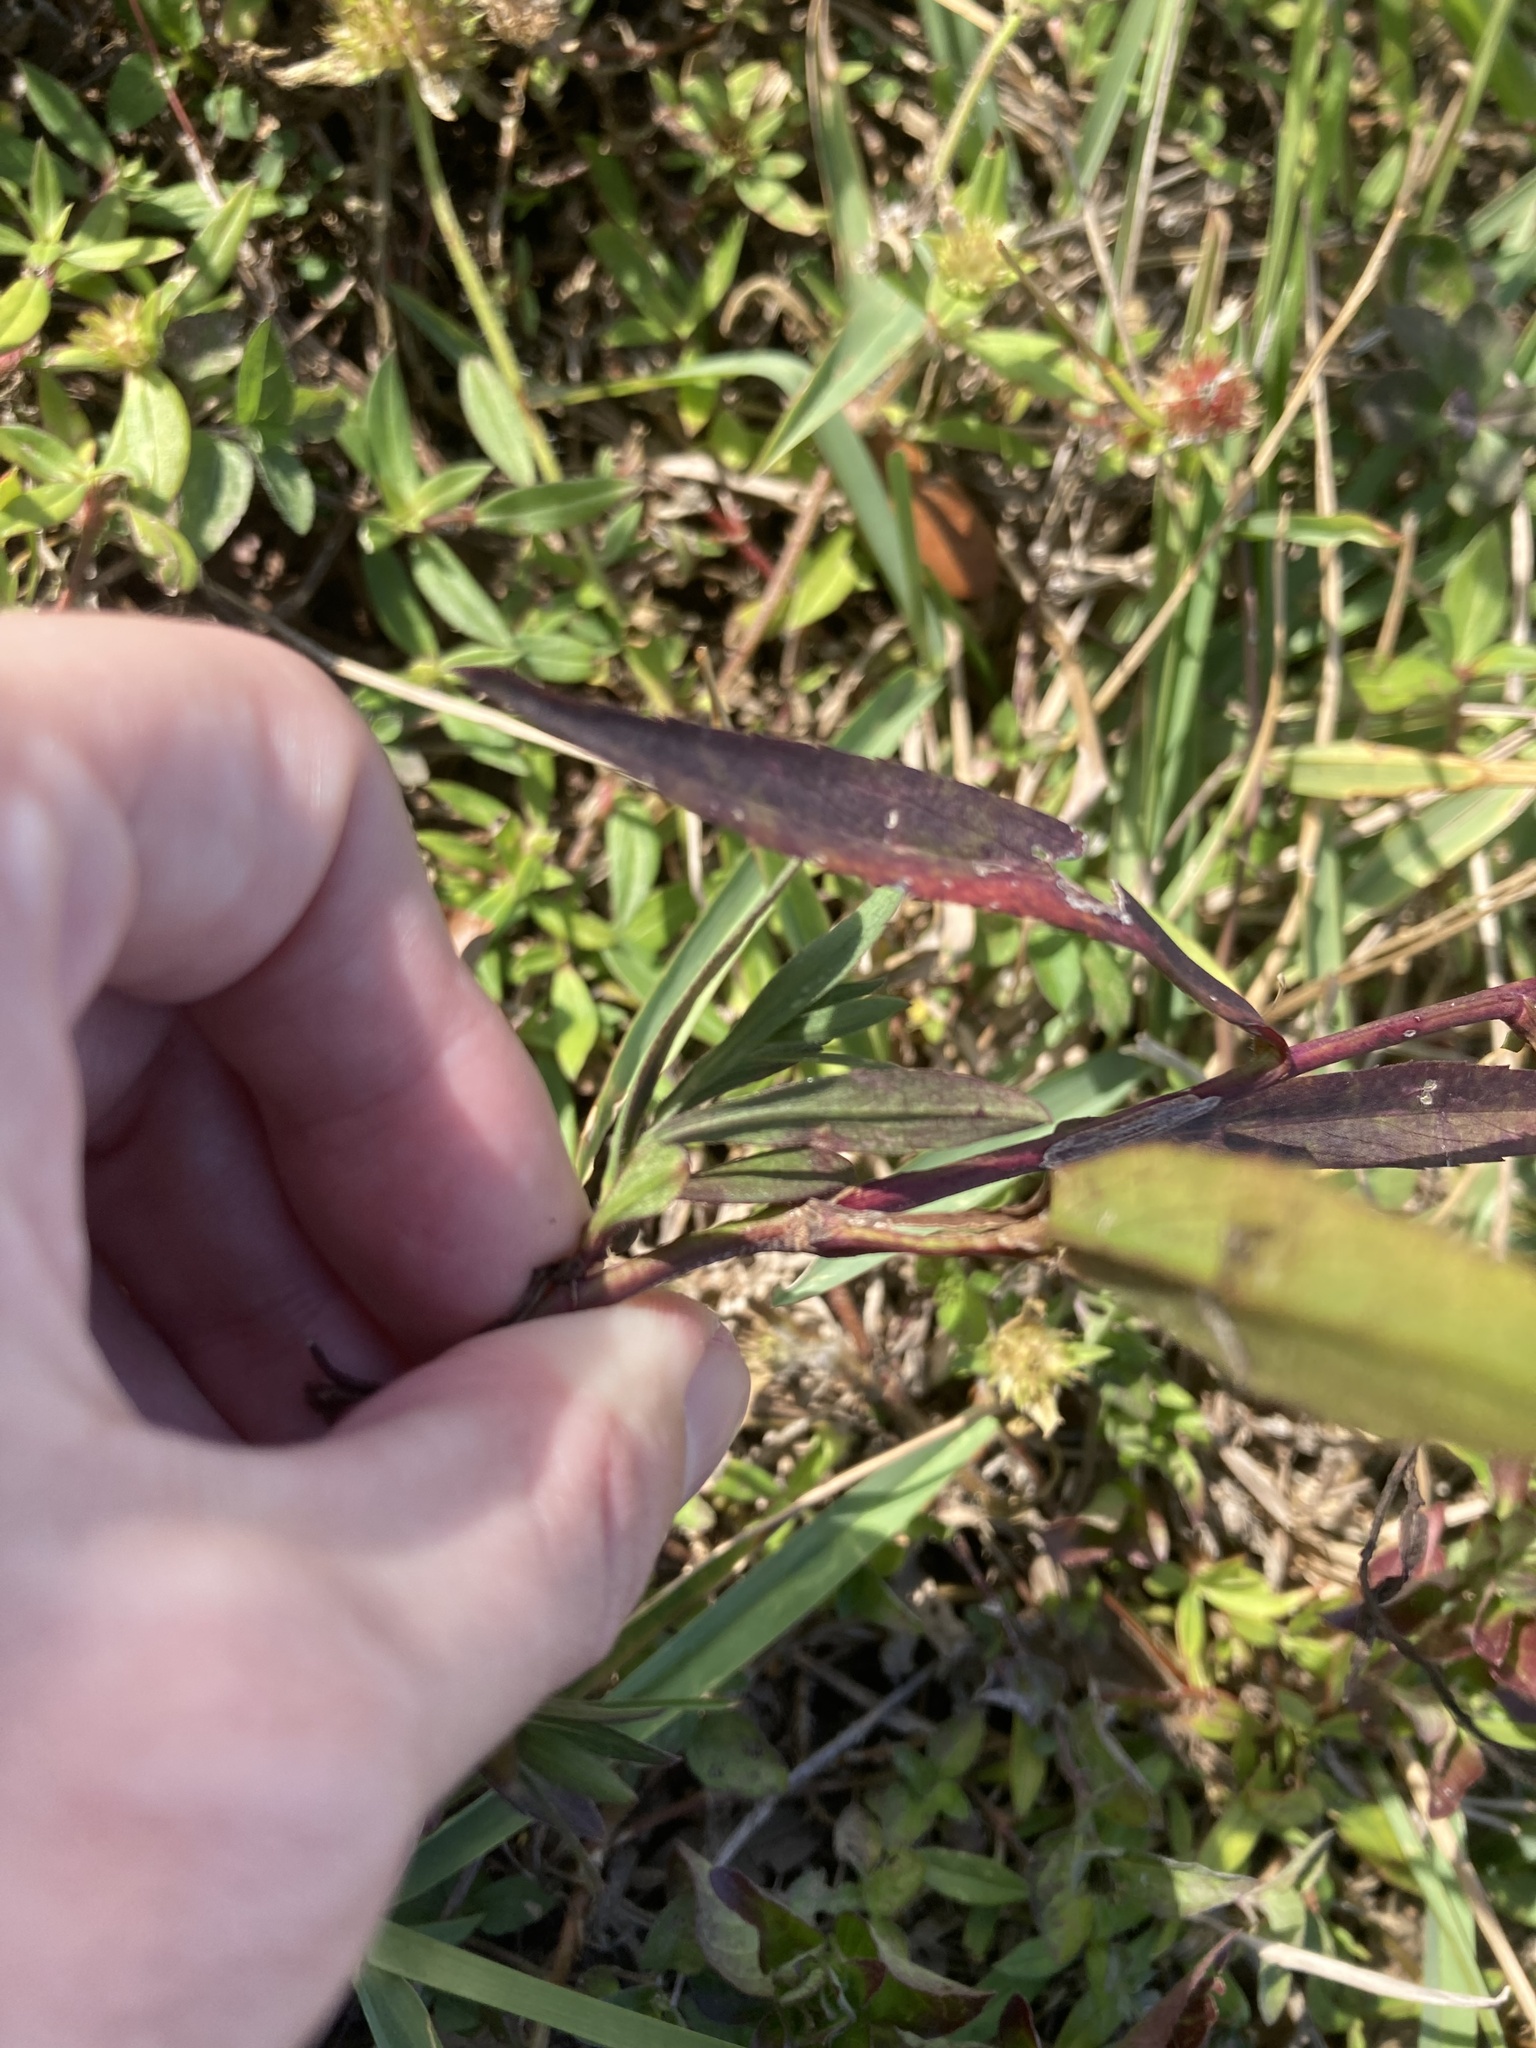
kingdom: Plantae
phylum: Tracheophyta
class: Magnoliopsida
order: Asterales
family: Asteraceae
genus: Symphyotrichum
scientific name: Symphyotrichum simmondsii
